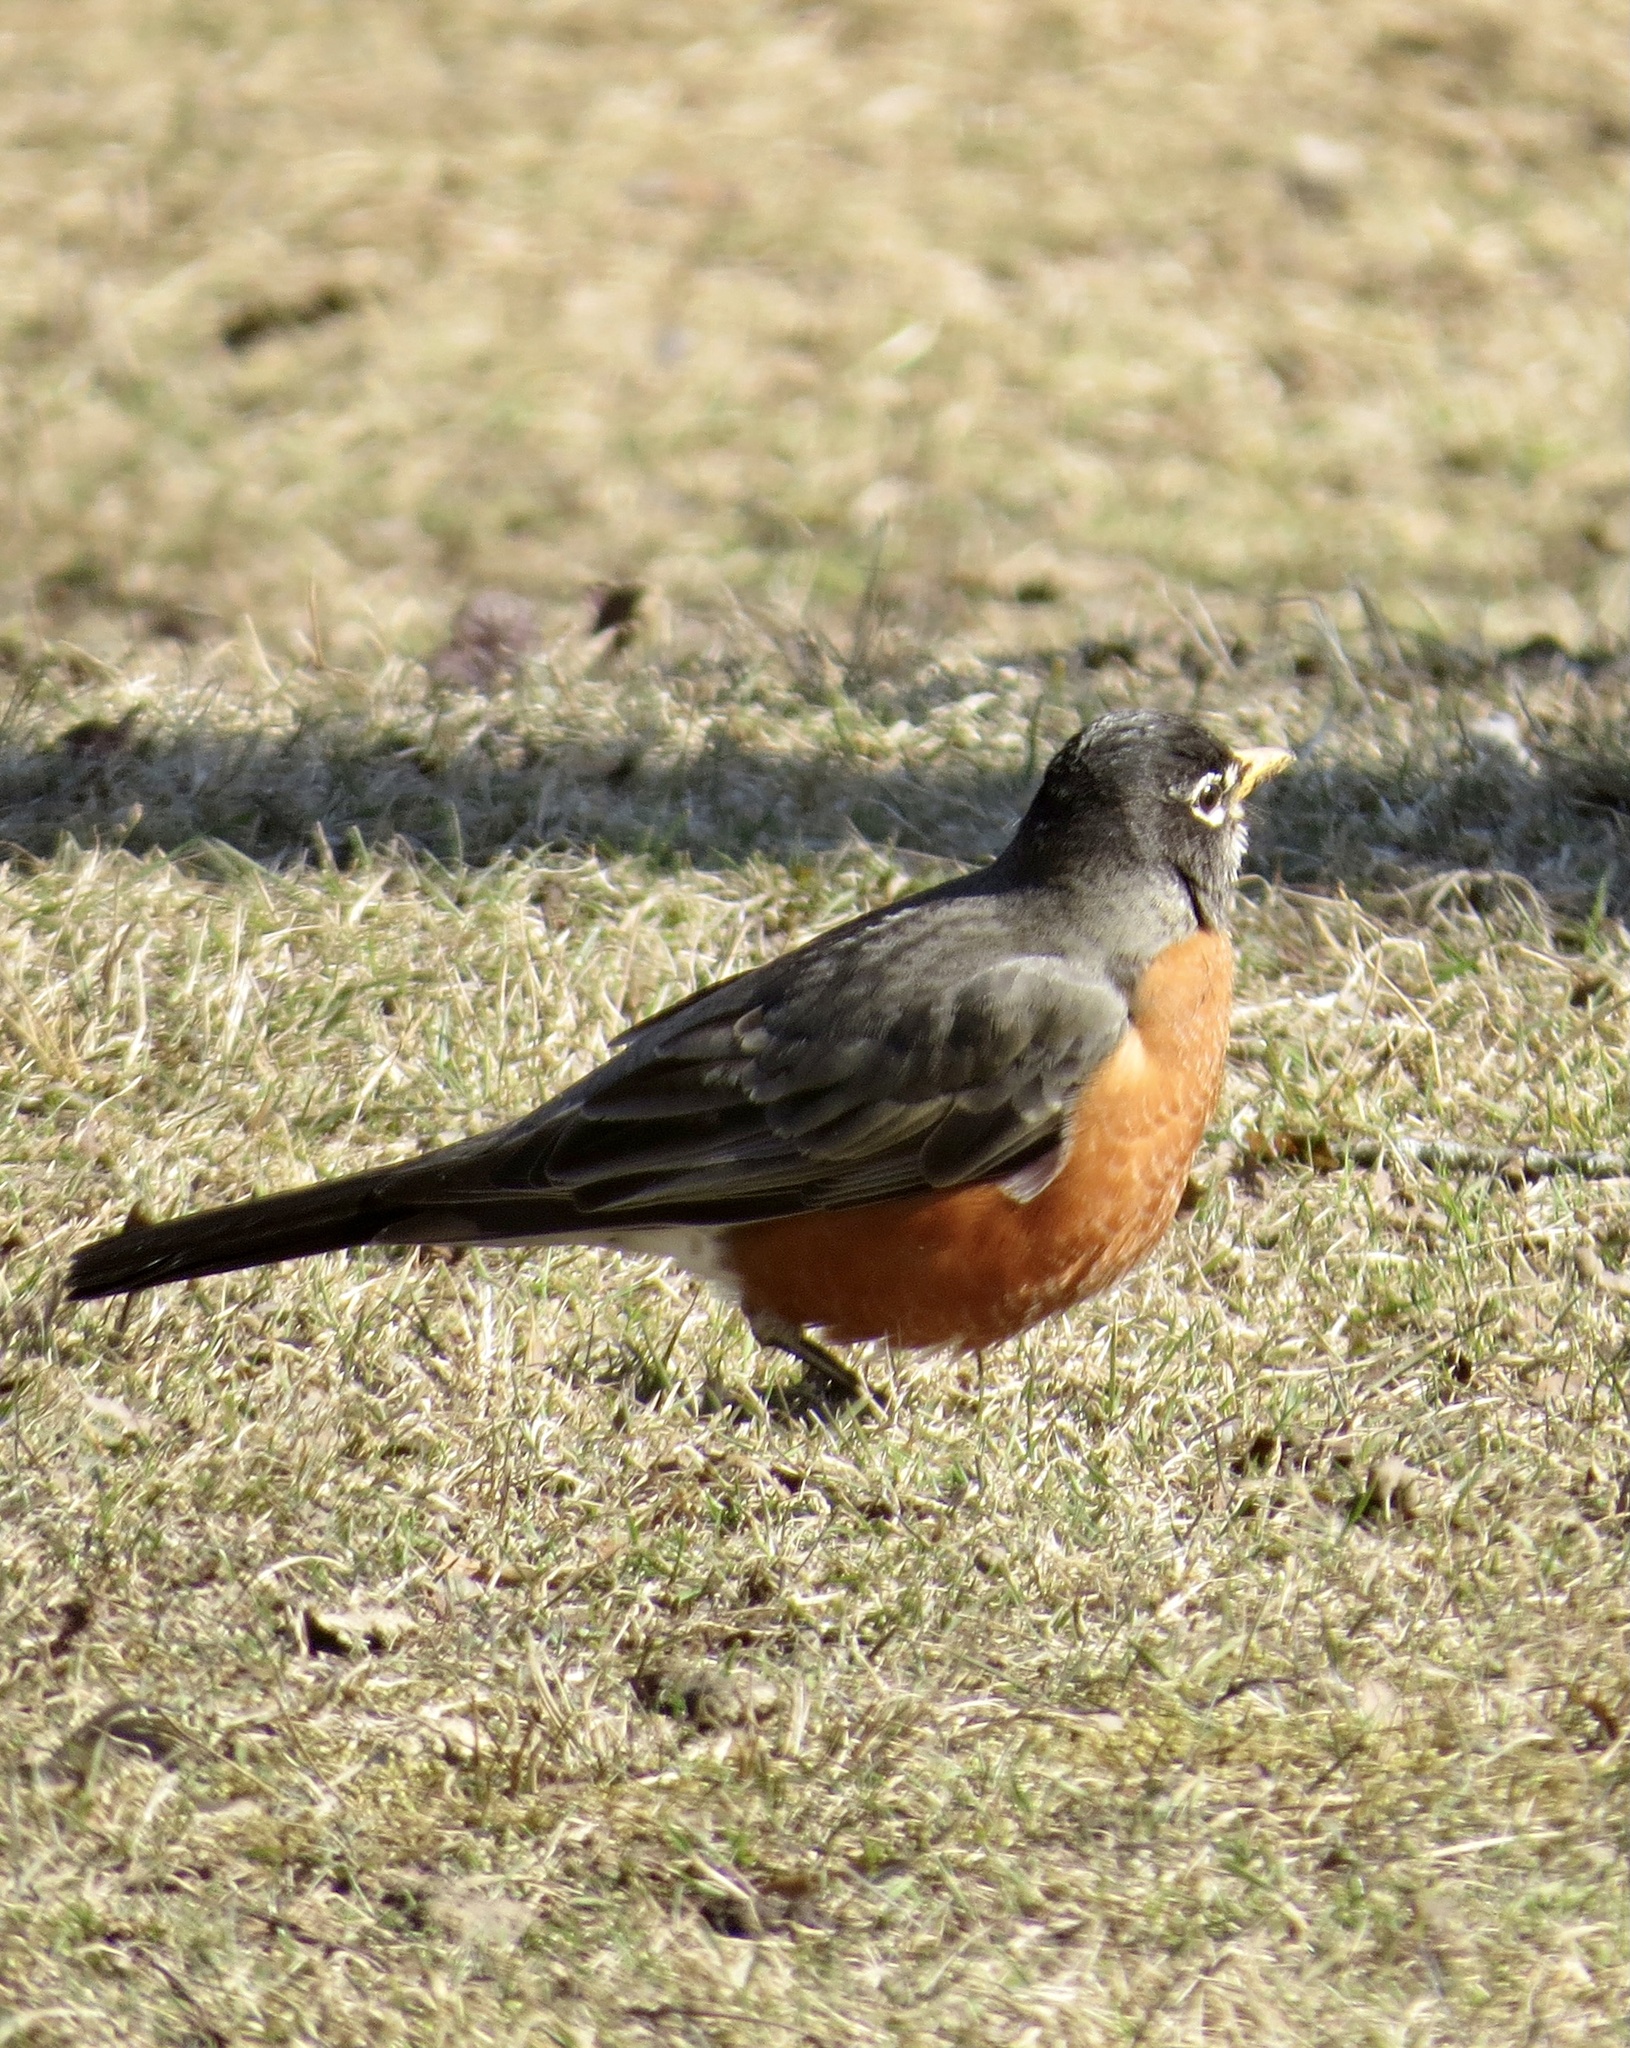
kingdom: Animalia
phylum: Chordata
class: Aves
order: Passeriformes
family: Turdidae
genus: Turdus
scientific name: Turdus migratorius
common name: American robin
